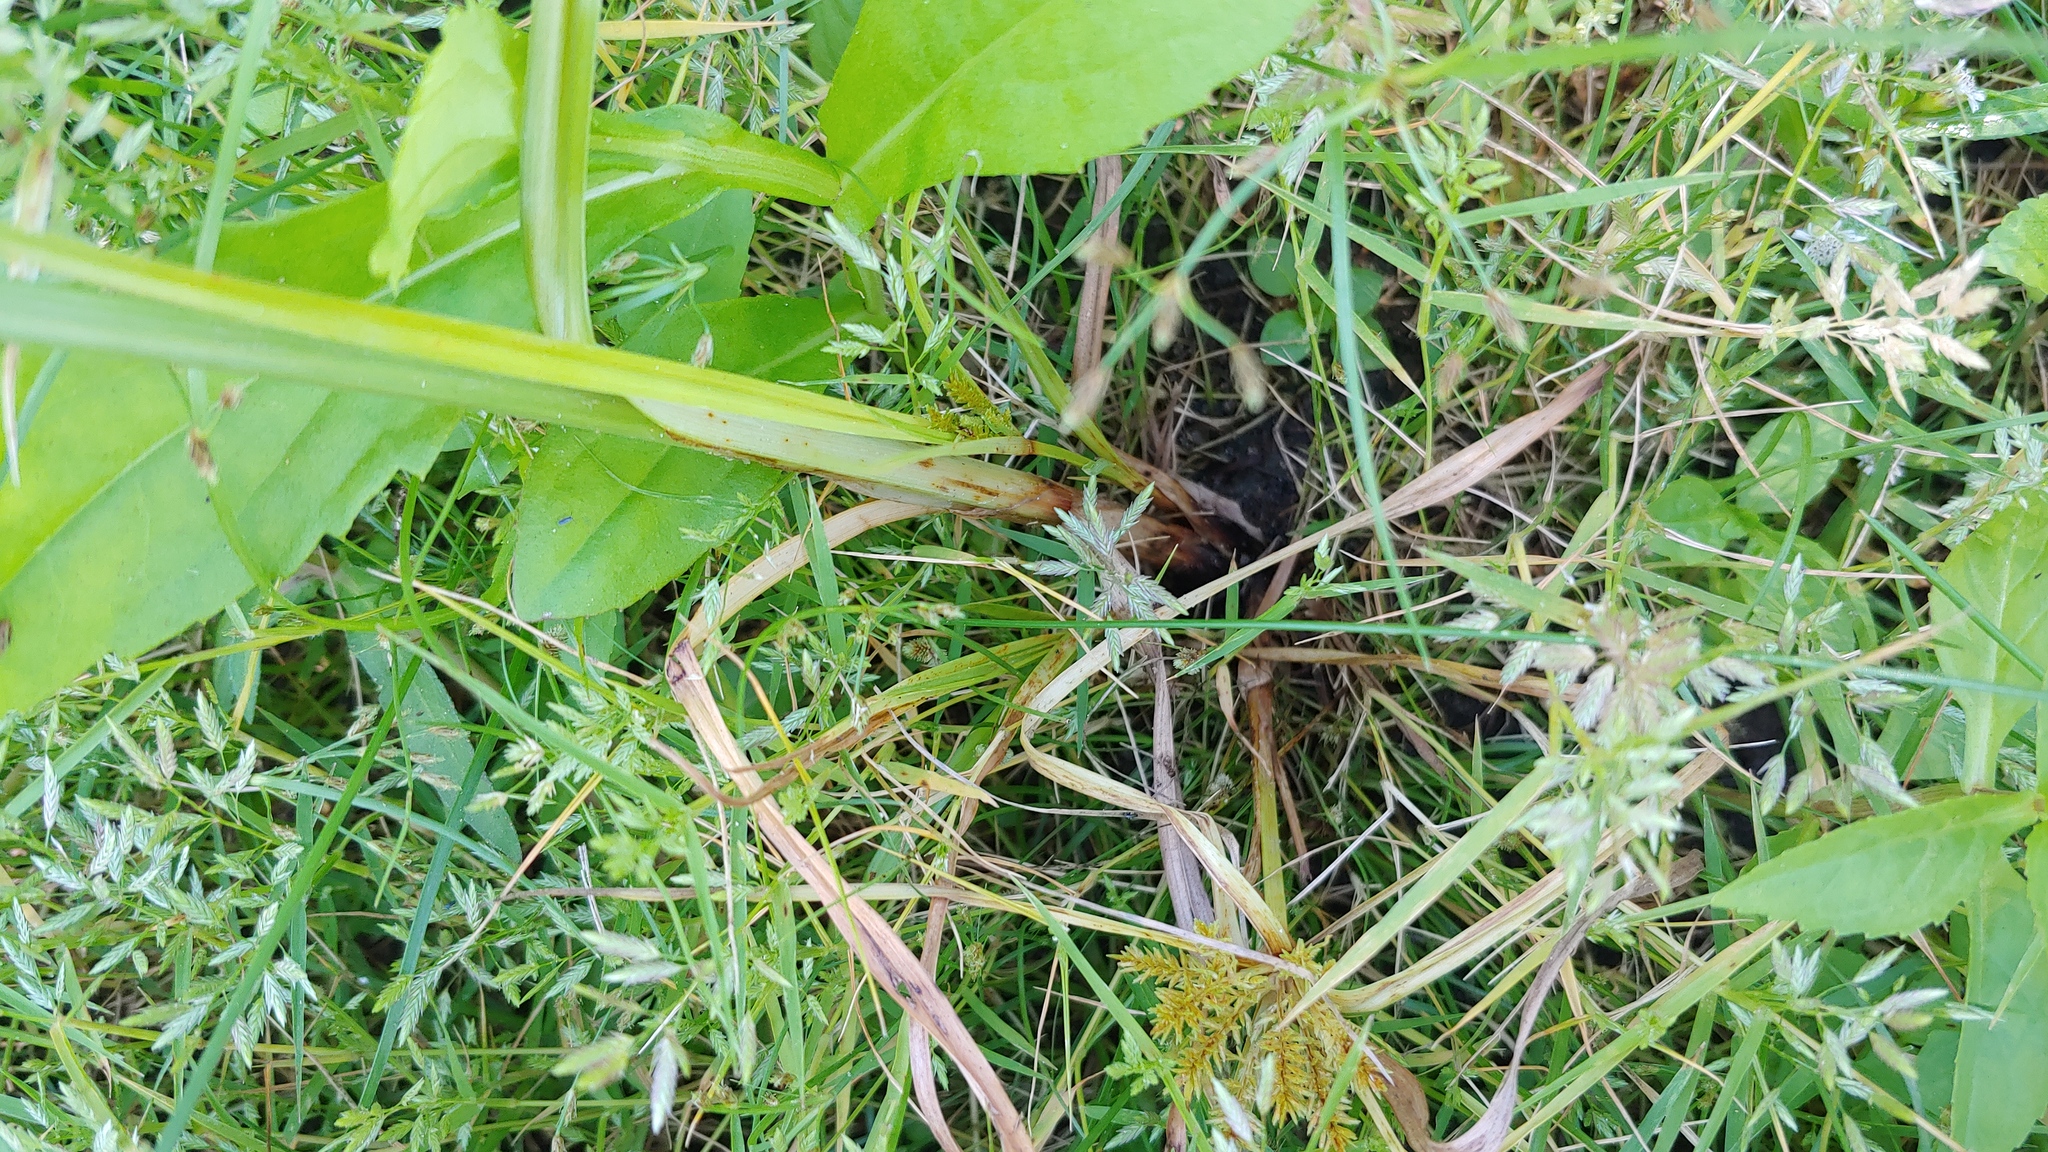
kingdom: Plantae
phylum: Tracheophyta
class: Liliopsida
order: Poales
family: Cyperaceae
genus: Cyperus
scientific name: Cyperus erythrorhizos
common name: Red-root flat sedge
